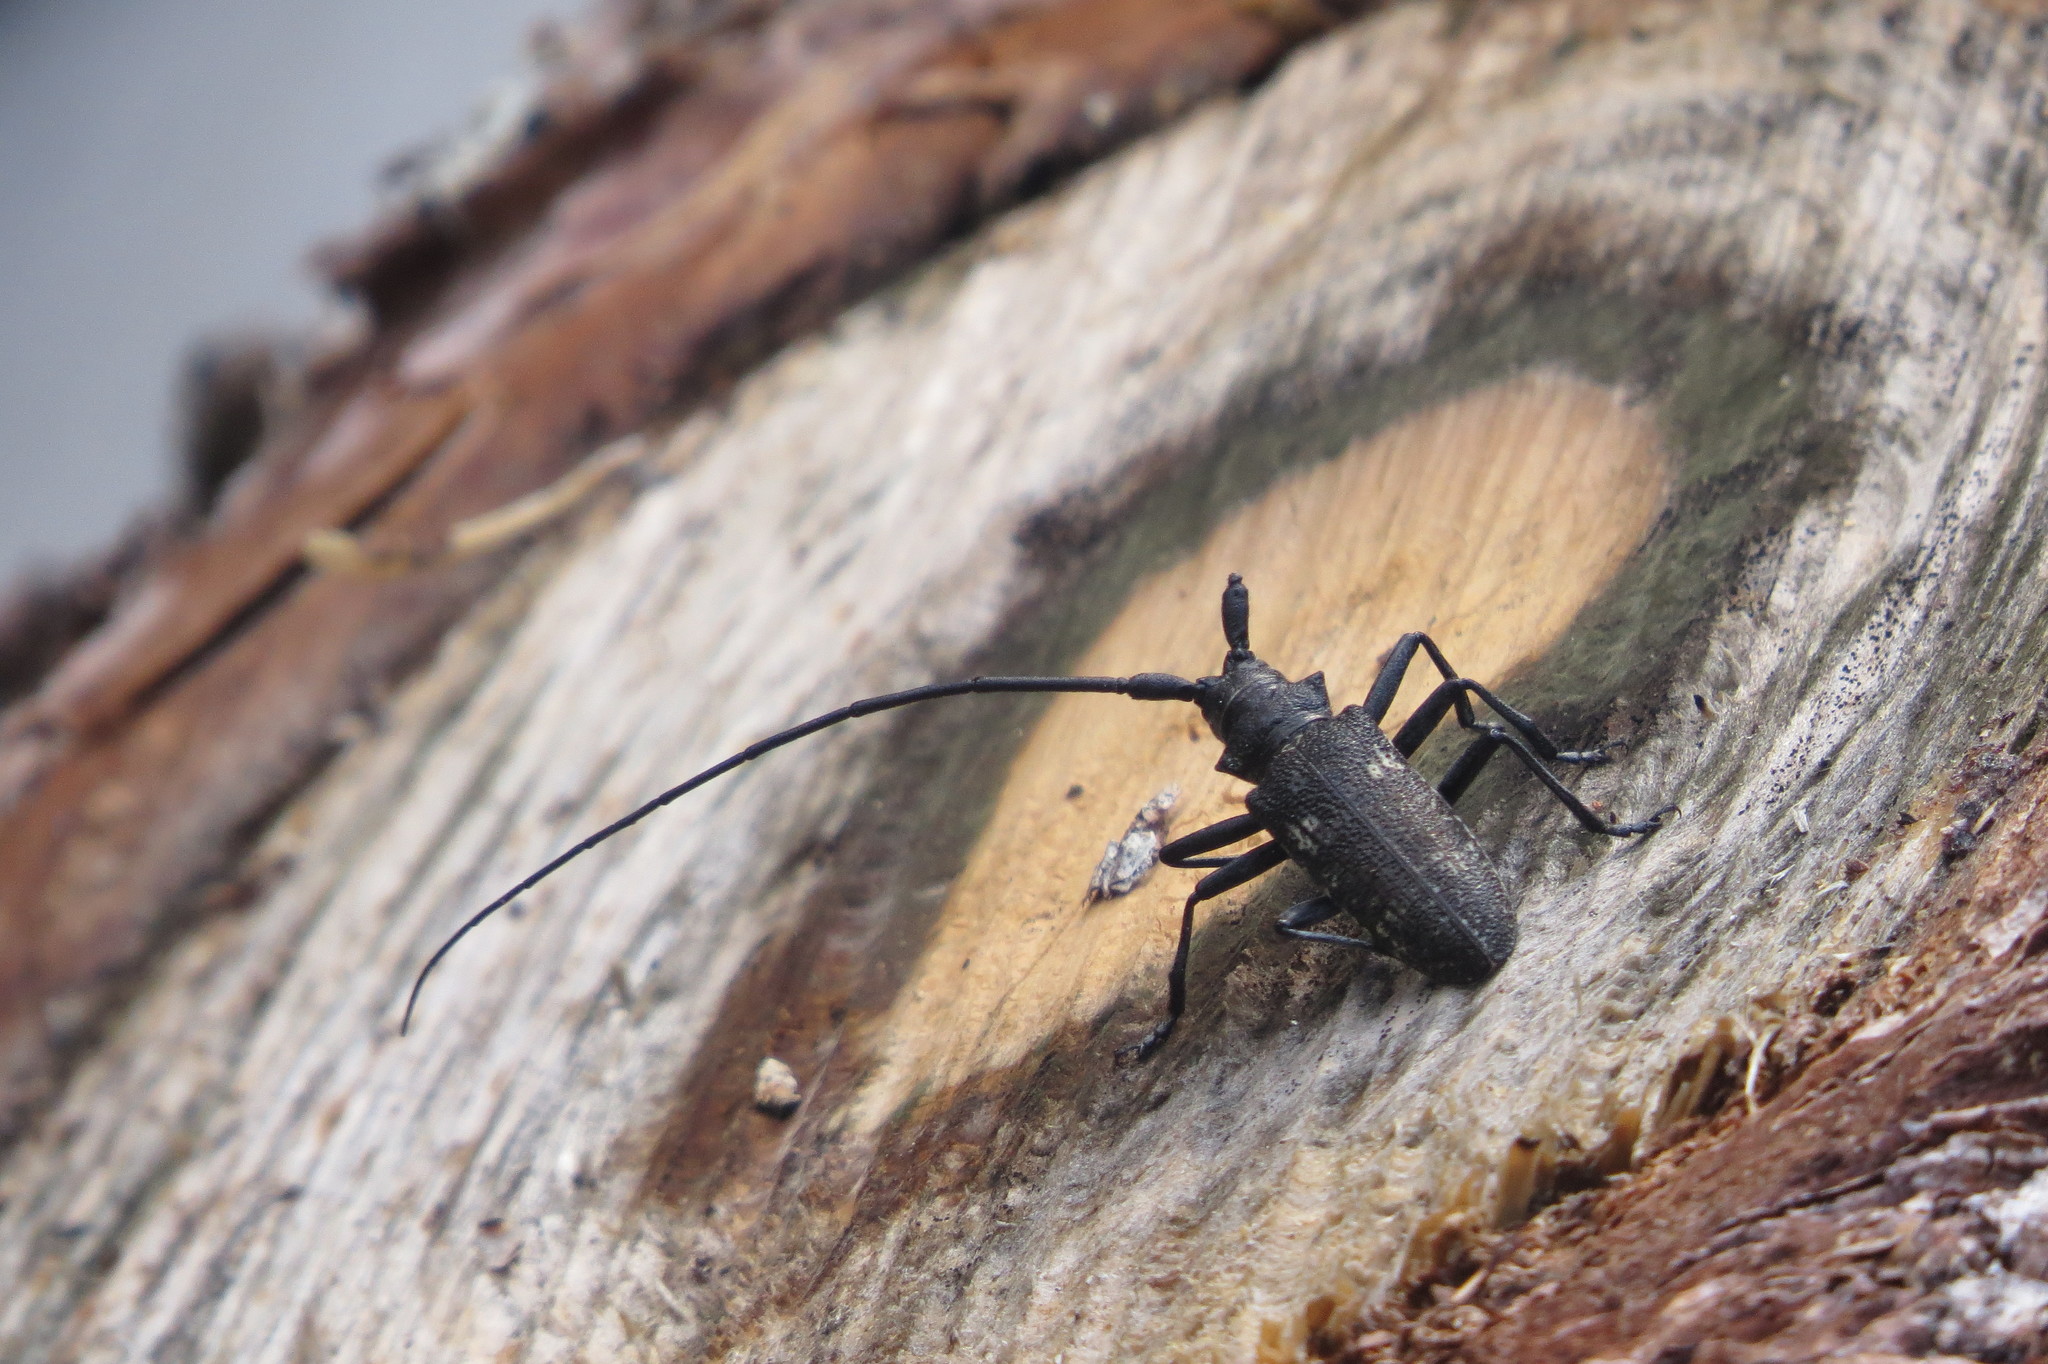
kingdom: Animalia
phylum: Arthropoda
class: Insecta
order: Coleoptera
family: Cerambycidae
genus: Monochamus
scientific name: Monochamus sutor
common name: Pine sawyer
